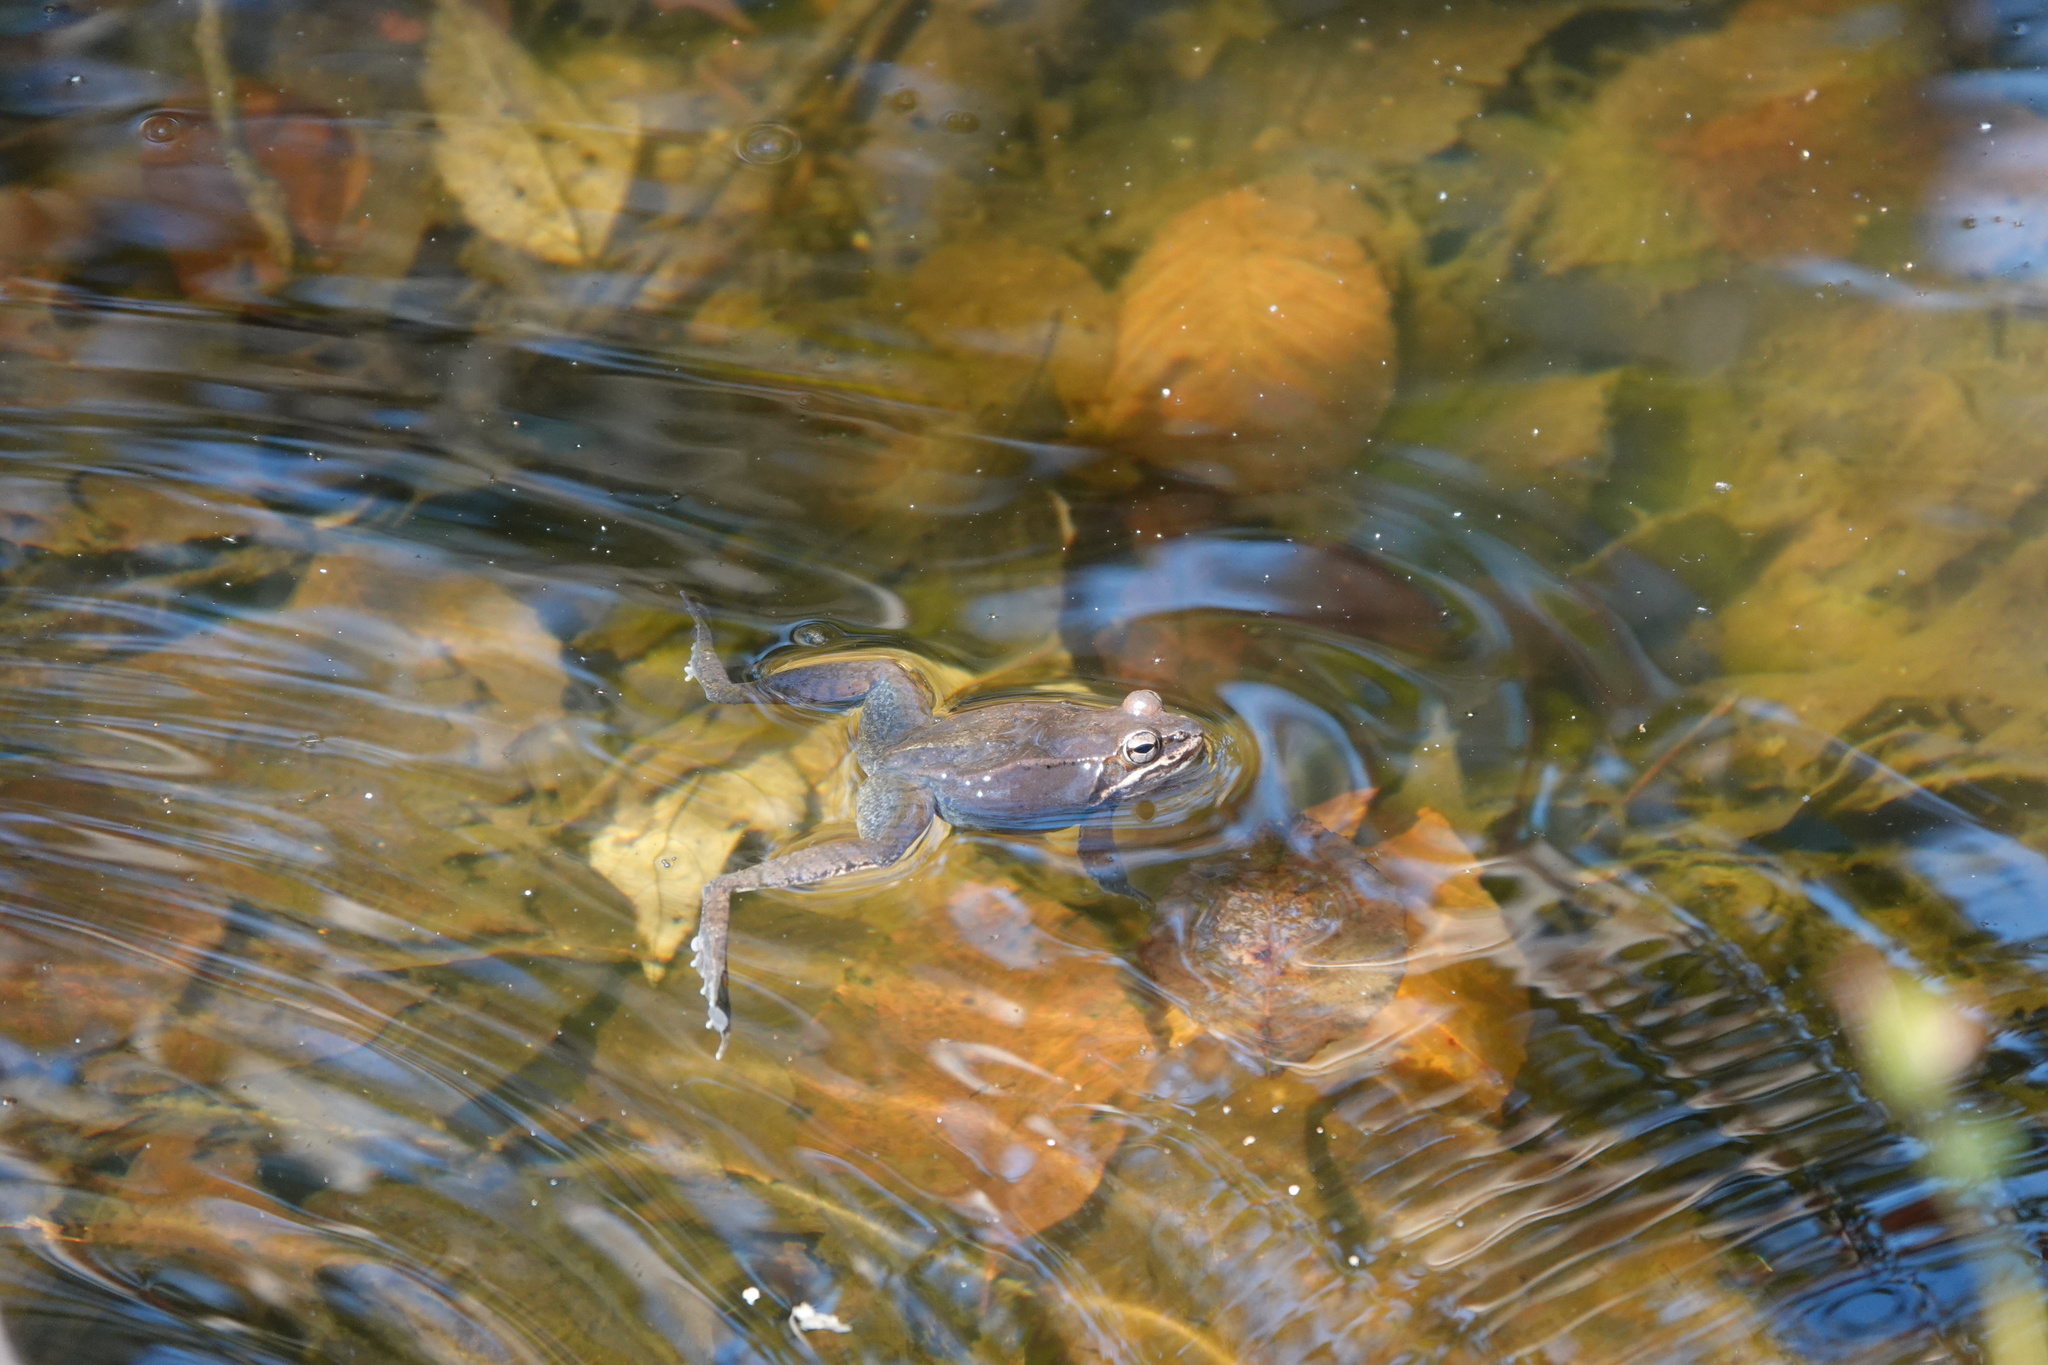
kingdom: Animalia
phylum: Chordata
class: Amphibia
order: Anura
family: Ranidae
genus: Lithobates
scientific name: Lithobates sylvaticus
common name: Wood frog
